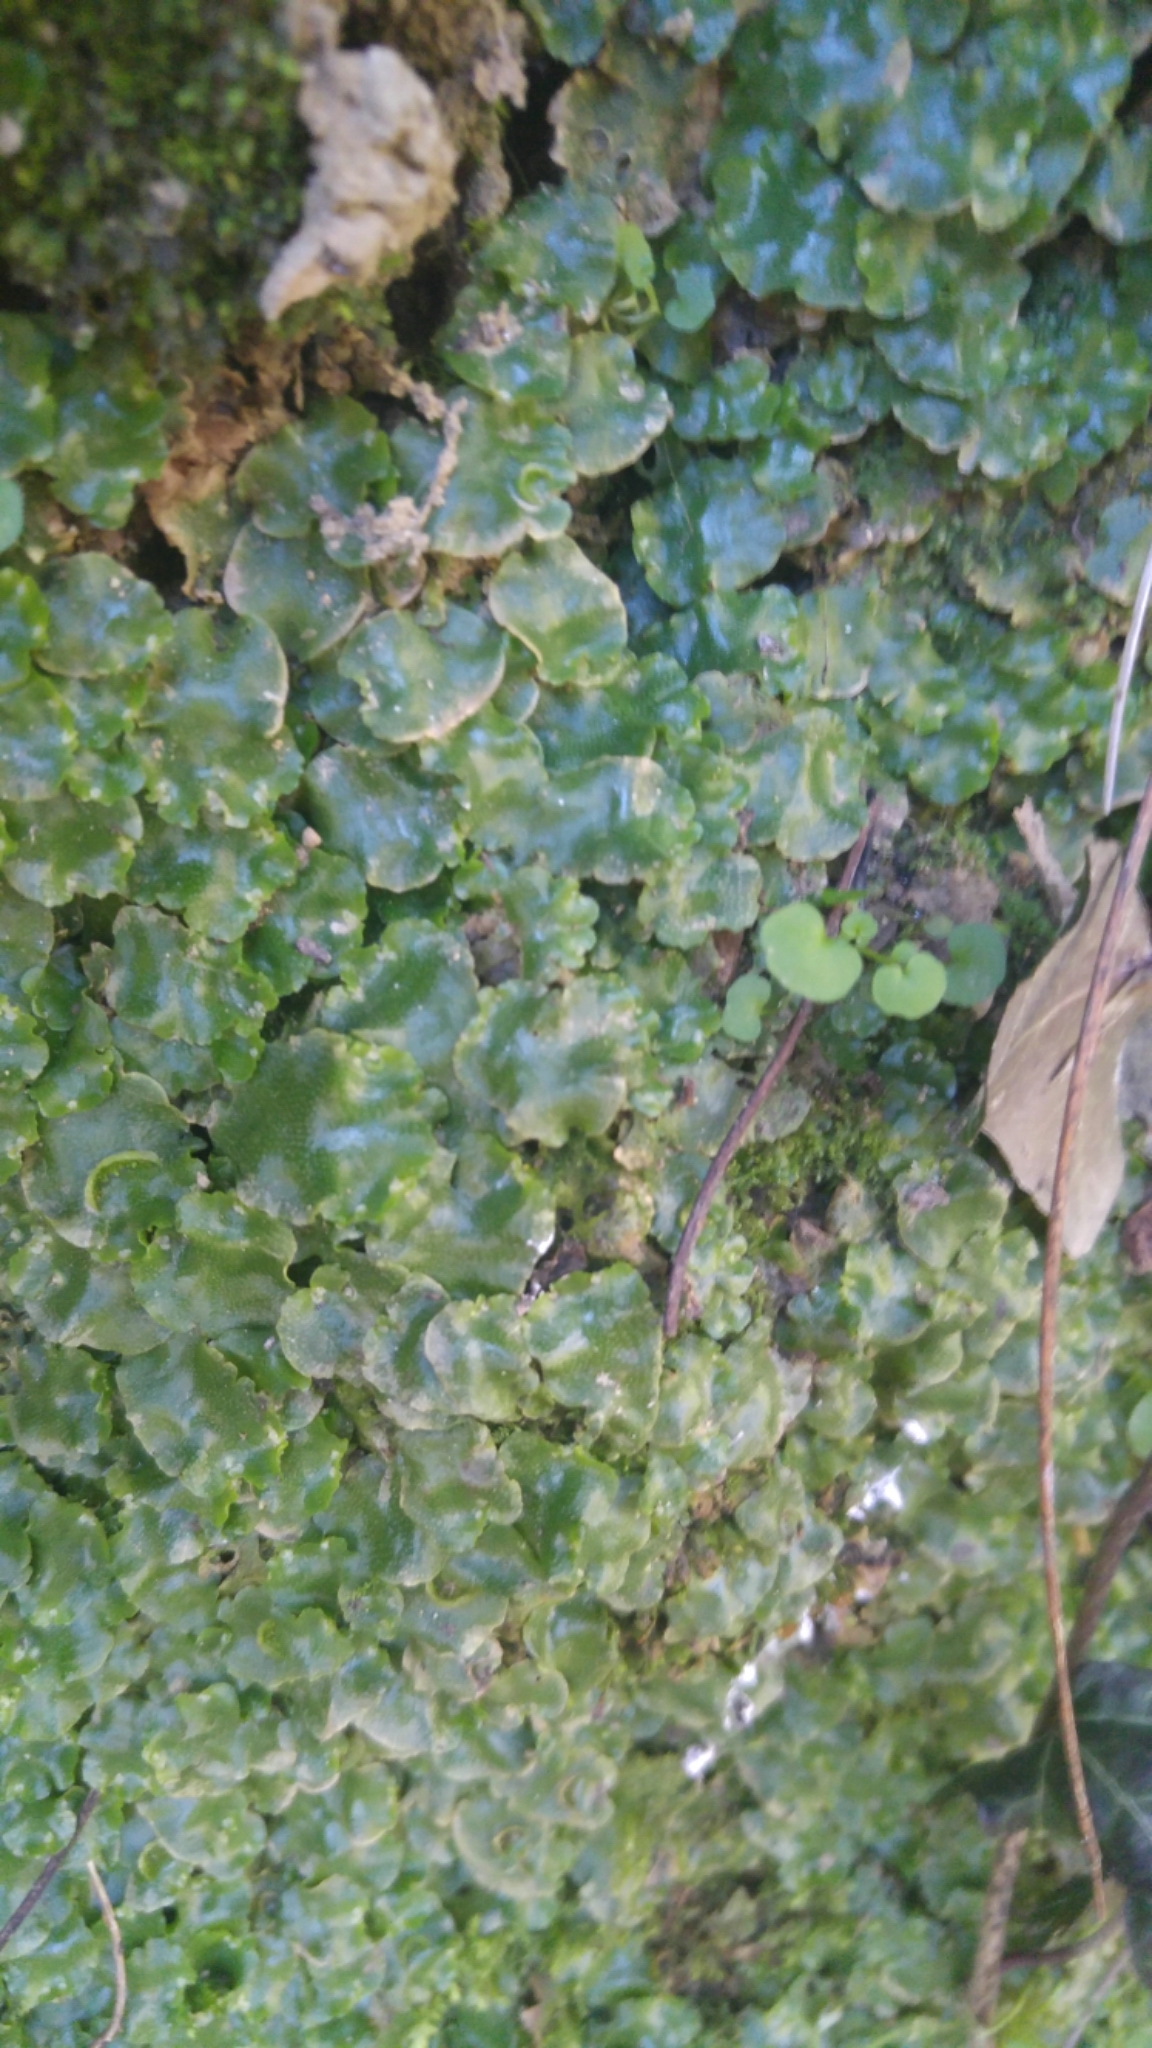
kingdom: Plantae
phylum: Marchantiophyta
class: Marchantiopsida
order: Lunulariales
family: Lunulariaceae
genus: Lunularia
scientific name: Lunularia cruciata
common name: Crescent-cup liverwort
